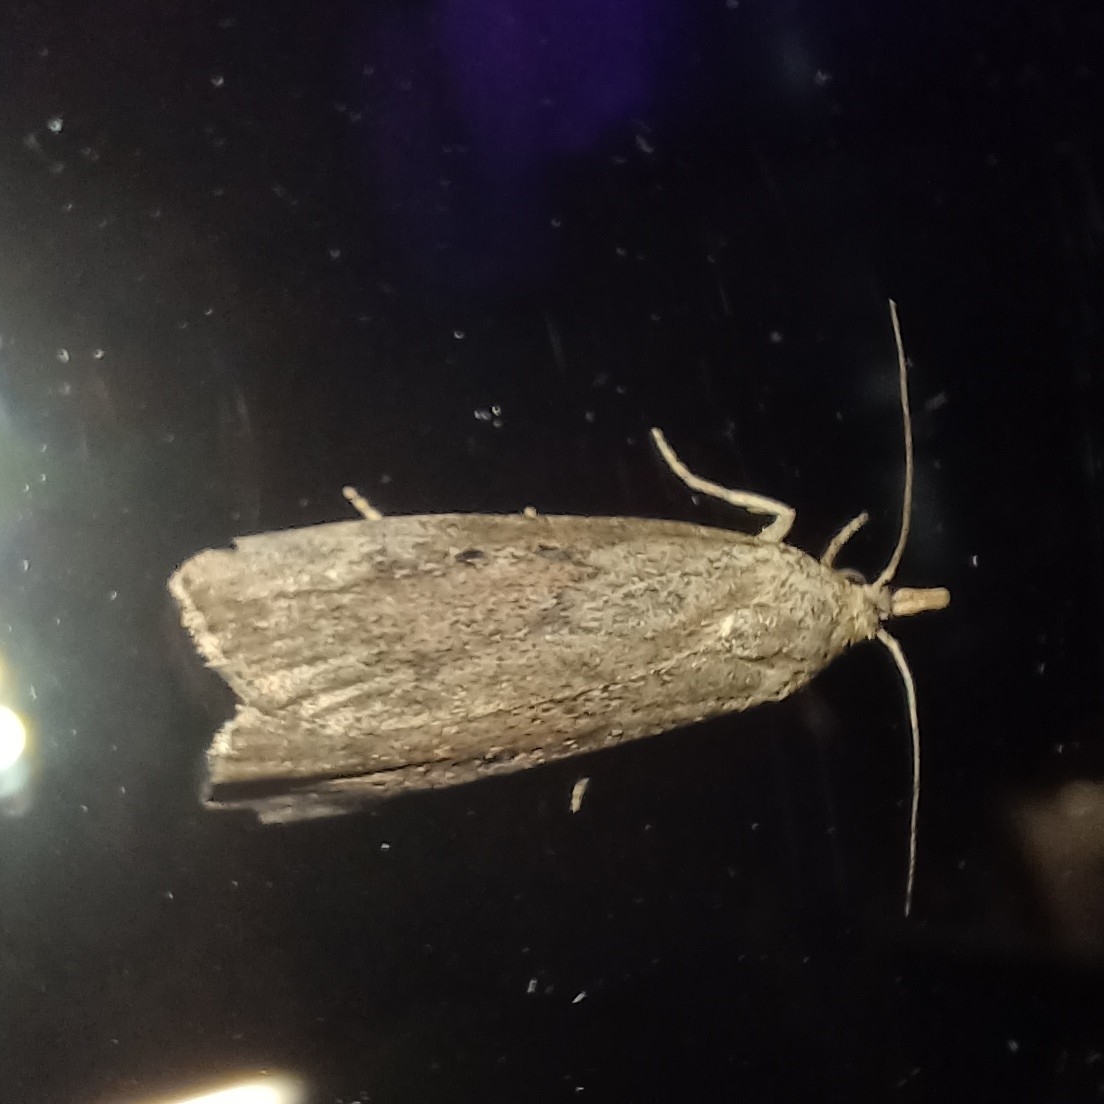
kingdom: Animalia
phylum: Arthropoda
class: Insecta
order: Lepidoptera
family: Pyralidae
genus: Aphomia
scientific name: Aphomia sociella
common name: Bee moth
